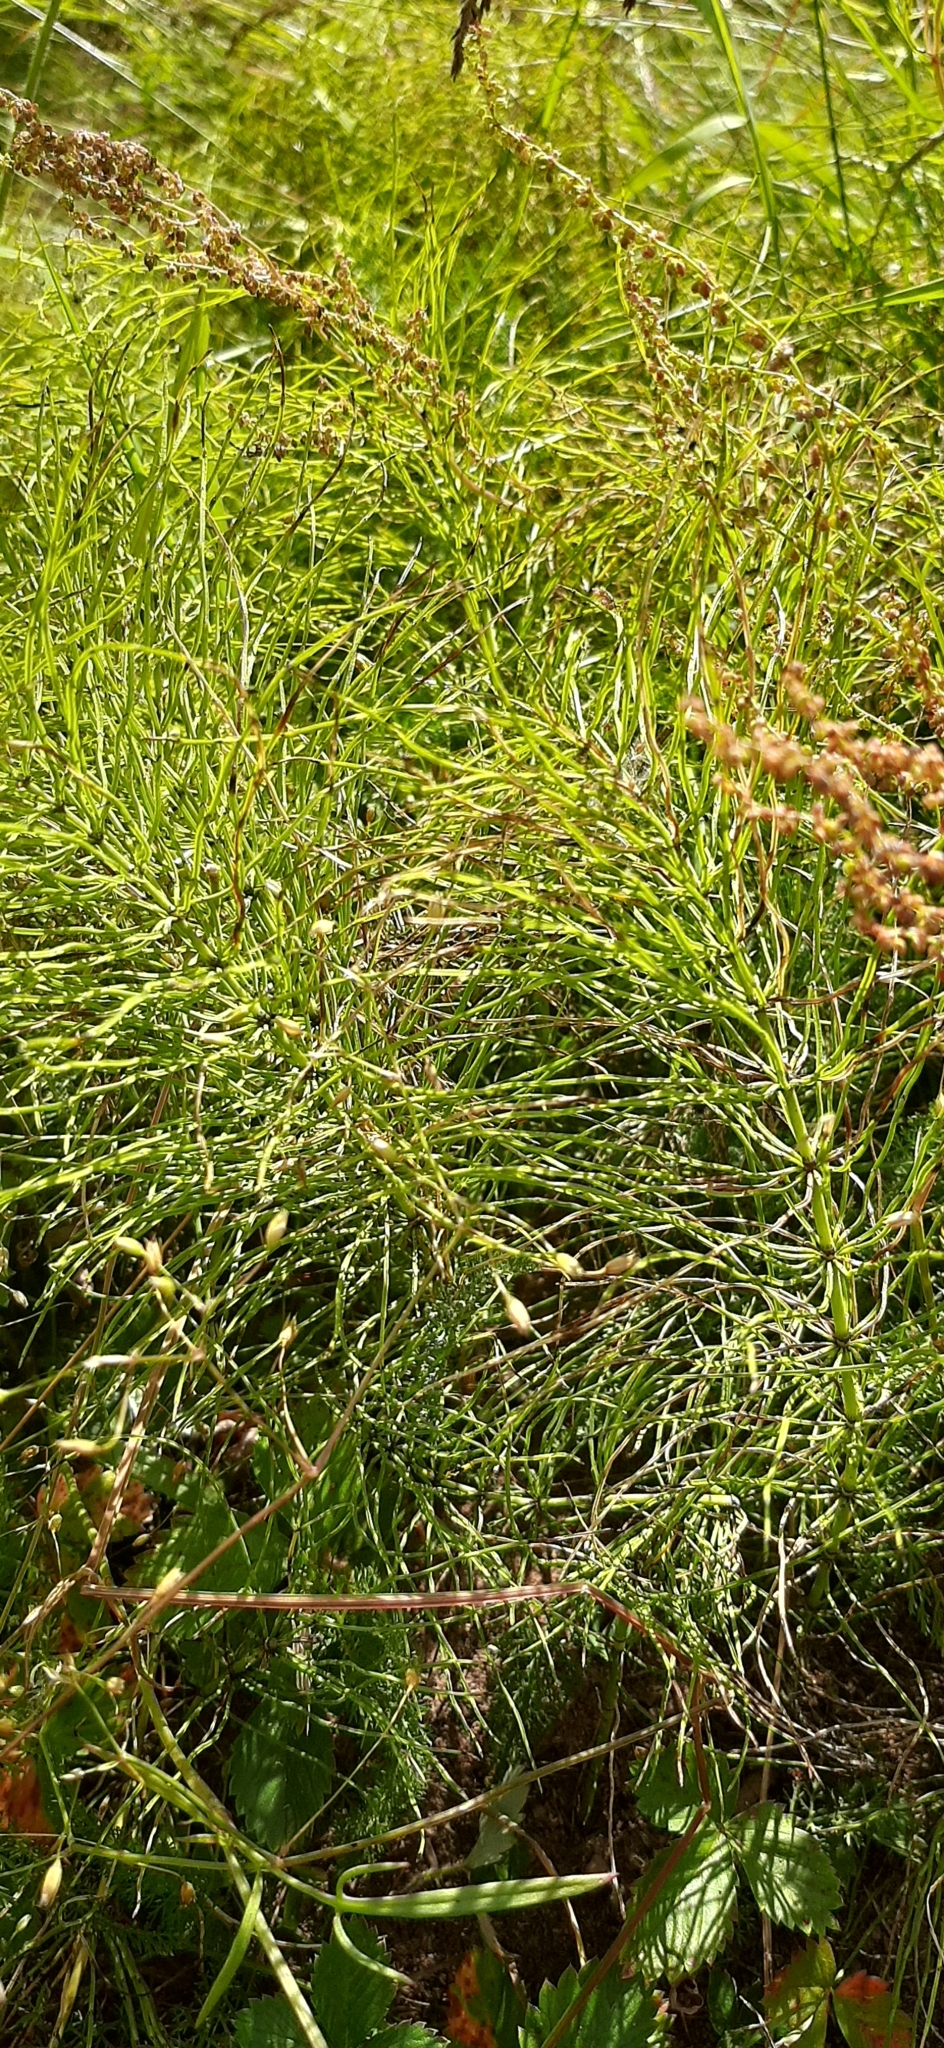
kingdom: Plantae
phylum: Tracheophyta
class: Polypodiopsida
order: Equisetales
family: Equisetaceae
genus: Equisetum
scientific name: Equisetum arvense
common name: Field horsetail
